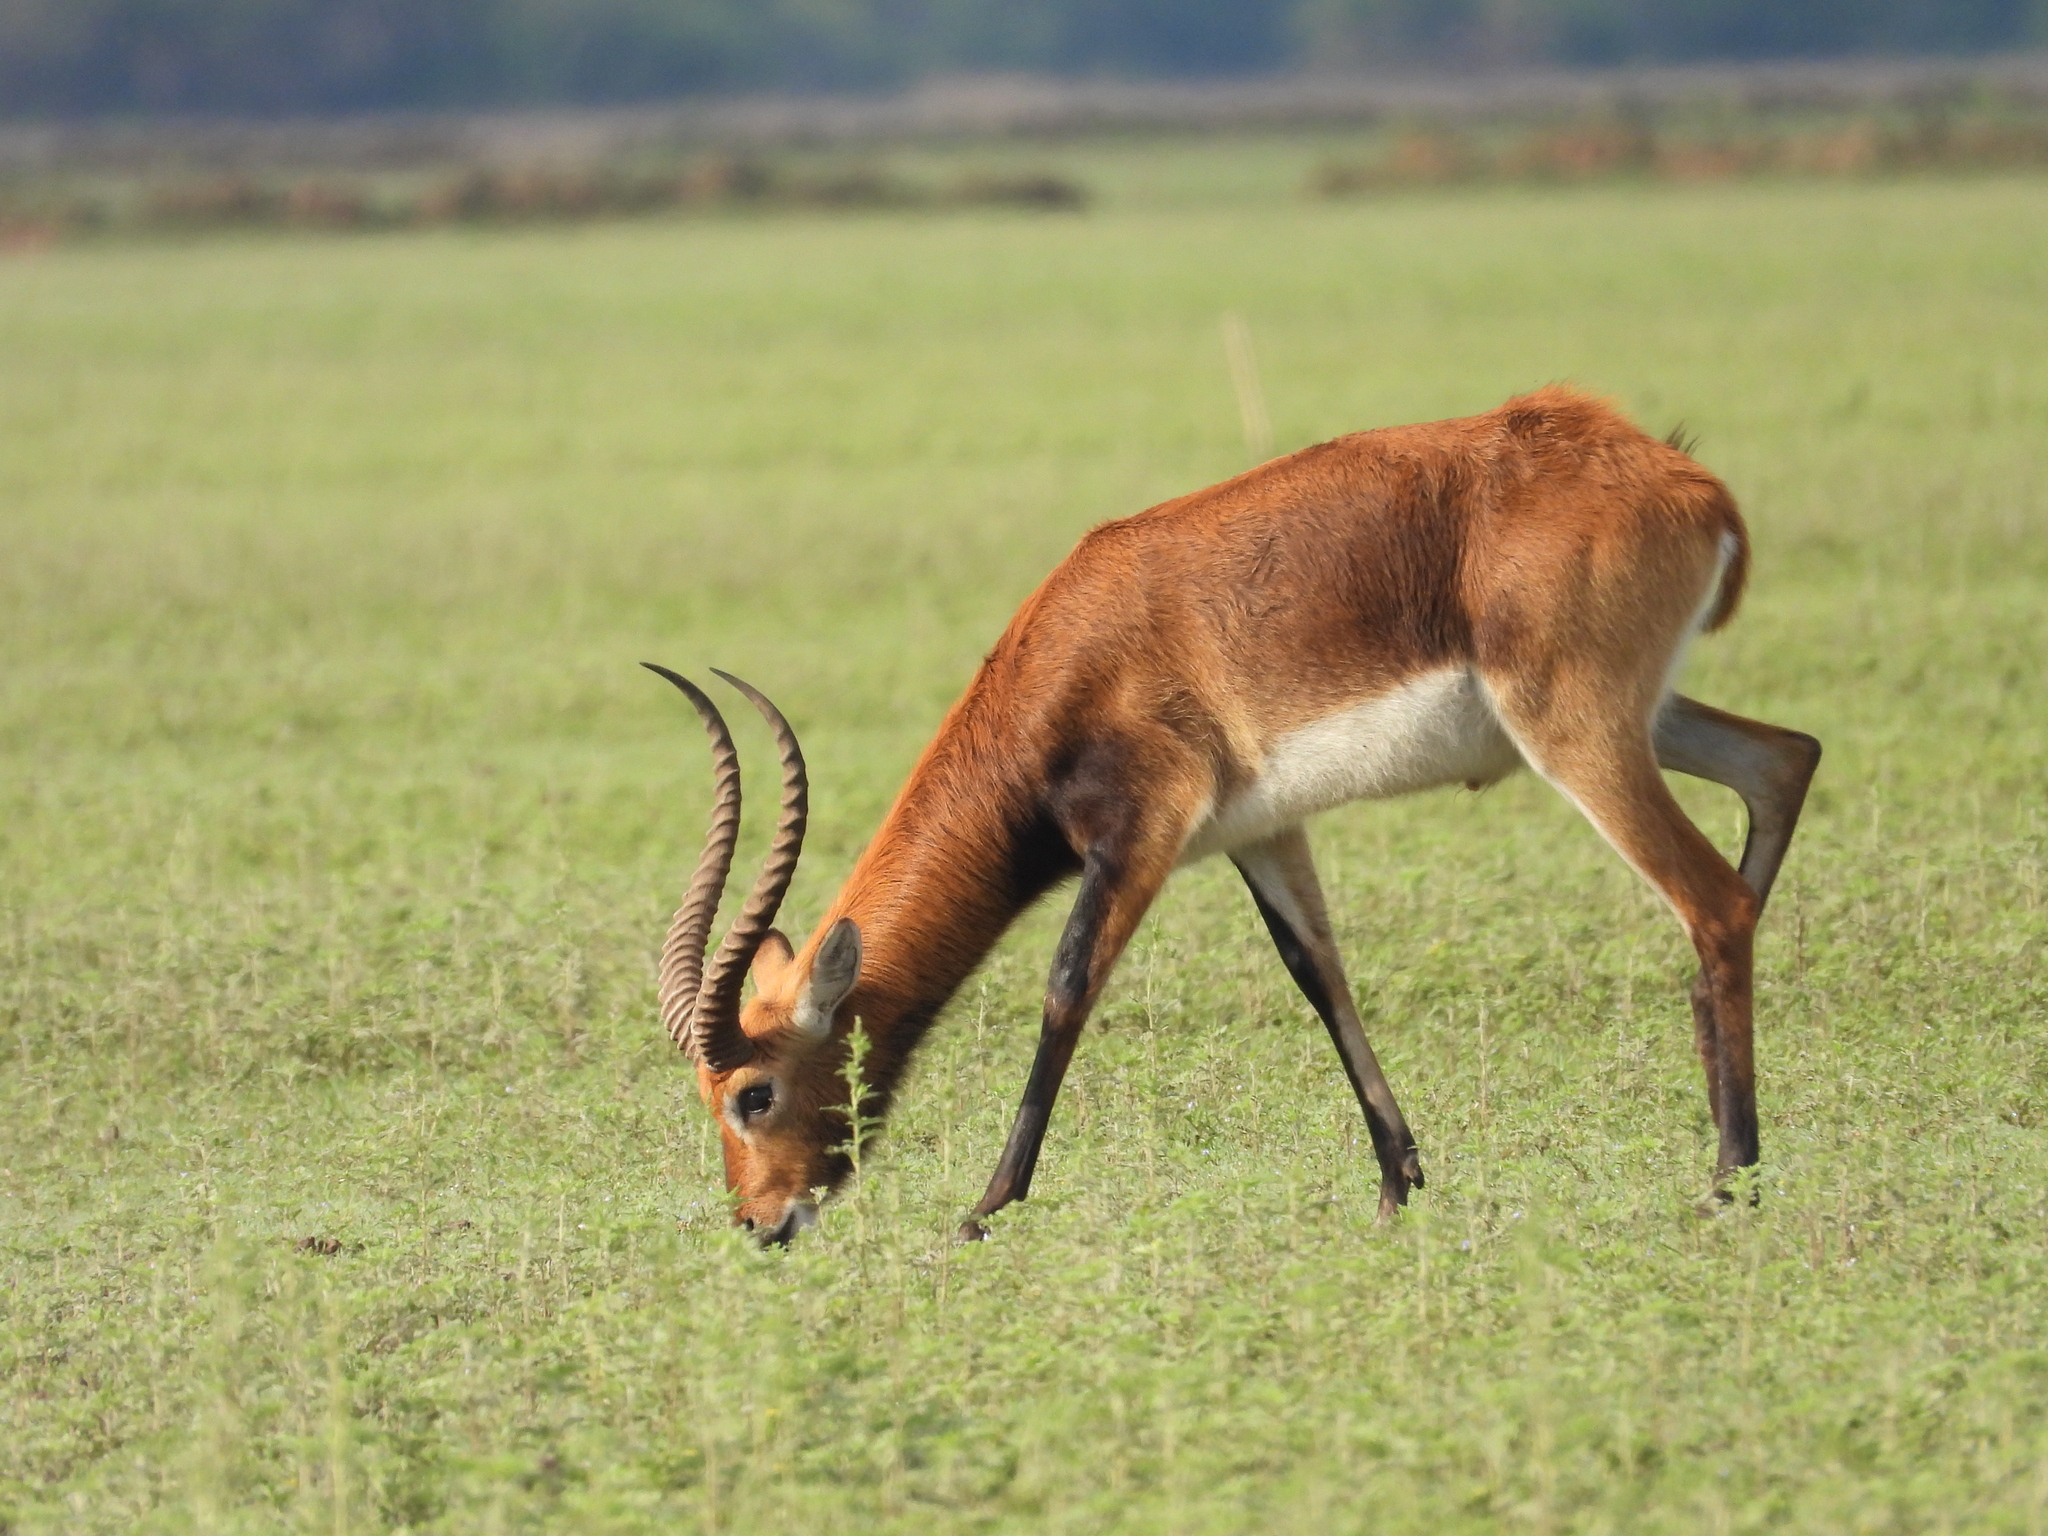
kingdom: Animalia
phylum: Chordata
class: Mammalia
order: Artiodactyla
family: Bovidae
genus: Kobus
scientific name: Kobus leche
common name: Lechwe
